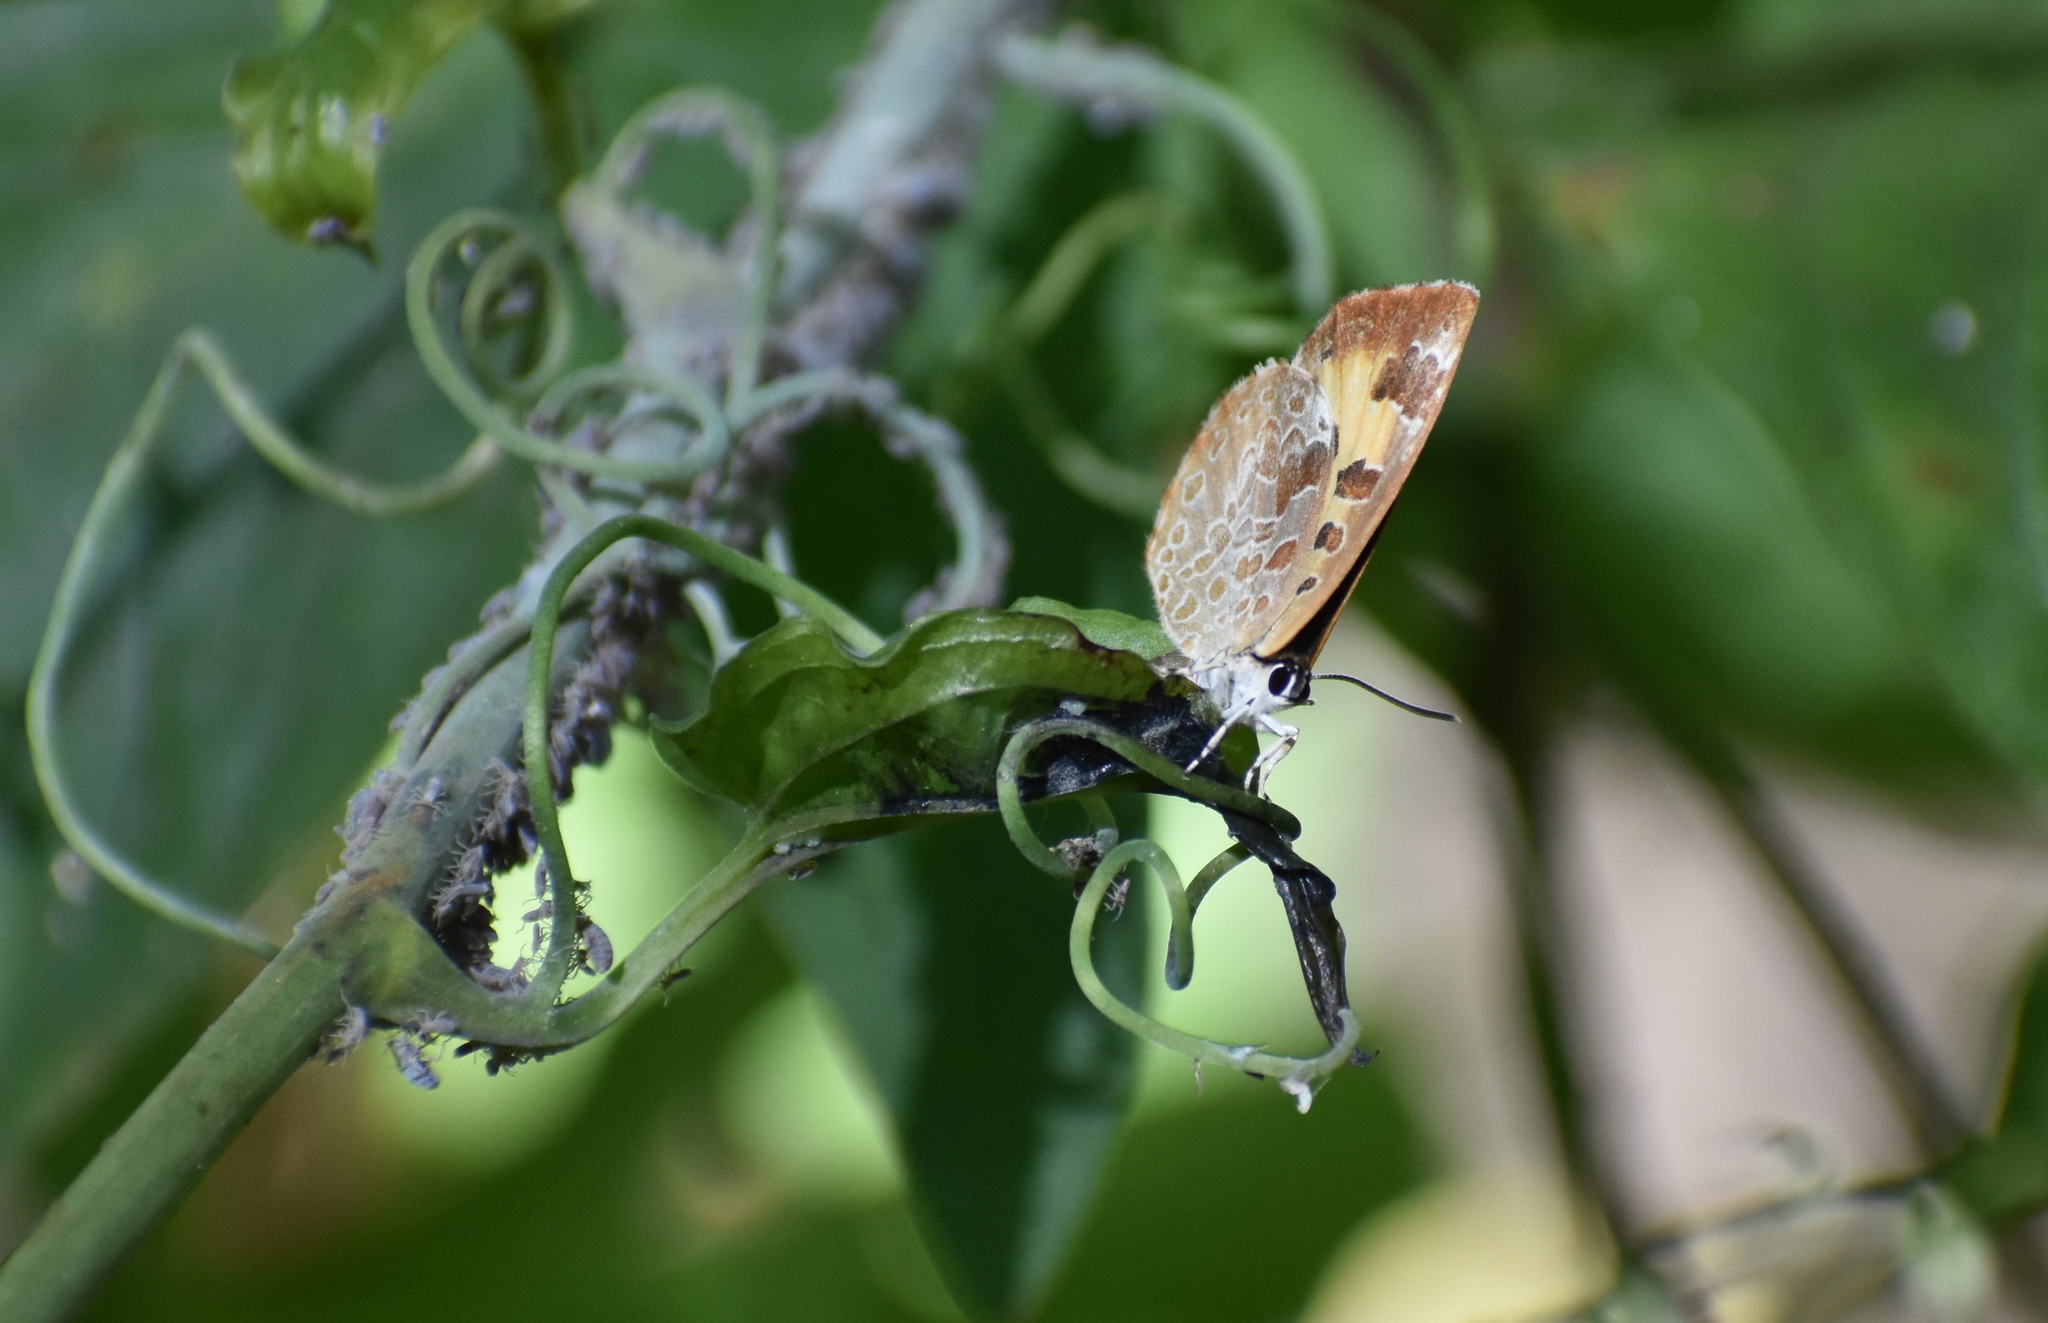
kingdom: Animalia
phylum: Arthropoda
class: Insecta
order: Lepidoptera
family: Lycaenidae
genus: Feniseca
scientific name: Feniseca tarquinius
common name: Harvester
